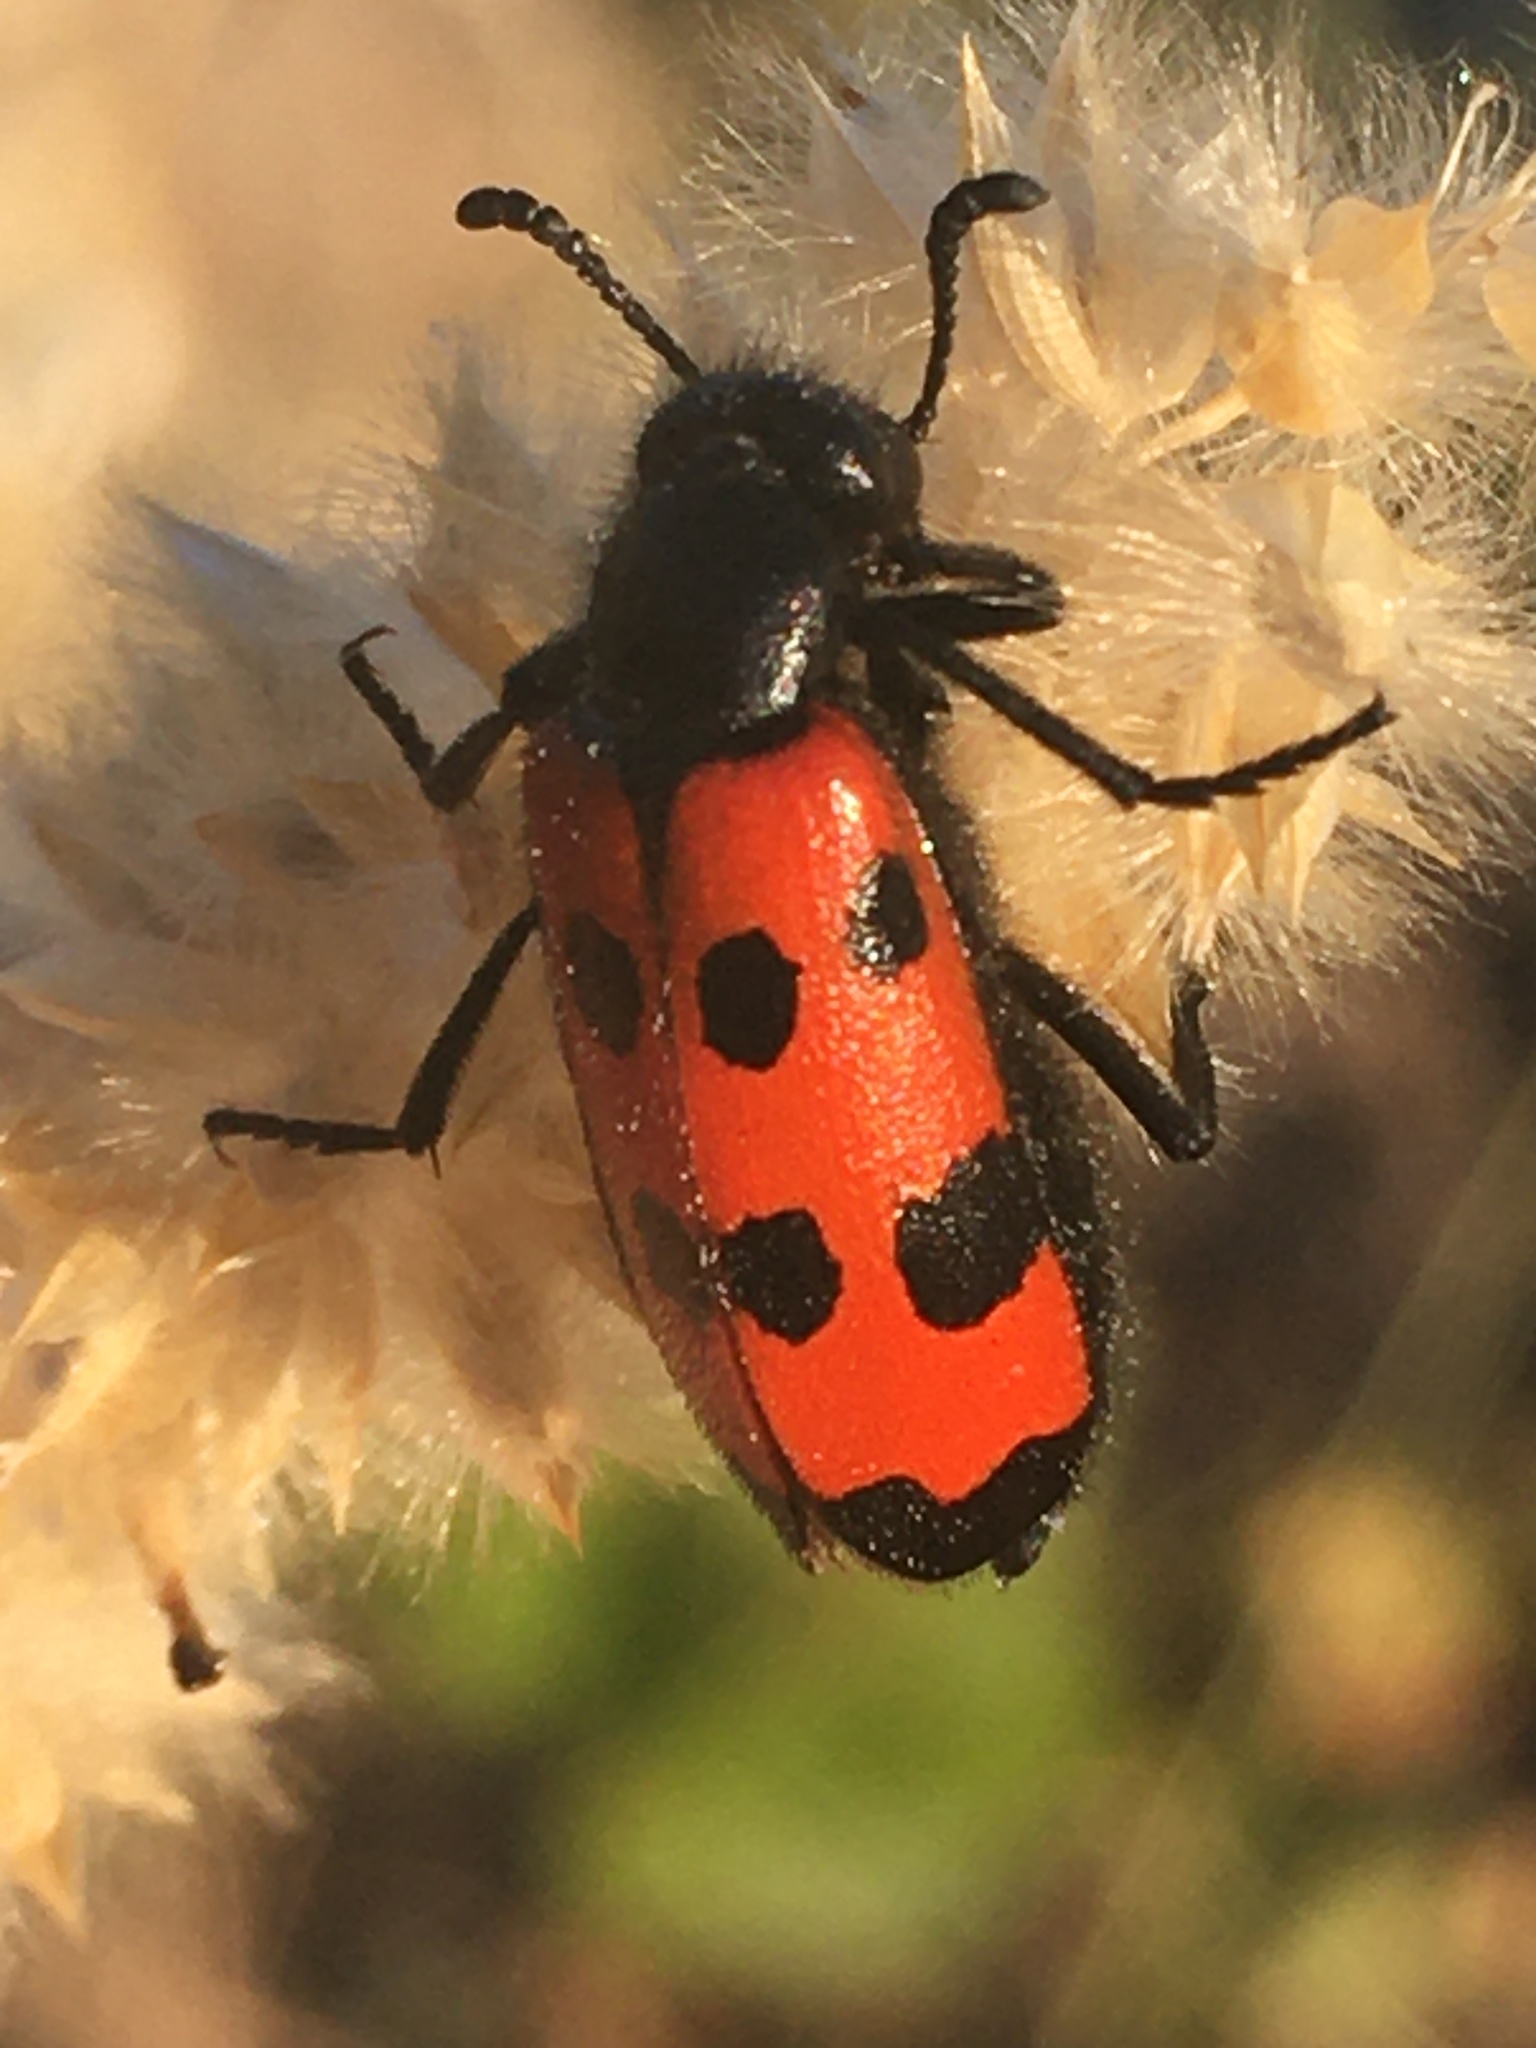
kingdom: Animalia
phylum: Arthropoda
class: Insecta
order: Coleoptera
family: Meloidae
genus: Mylabris
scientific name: Mylabris quadripunctata
